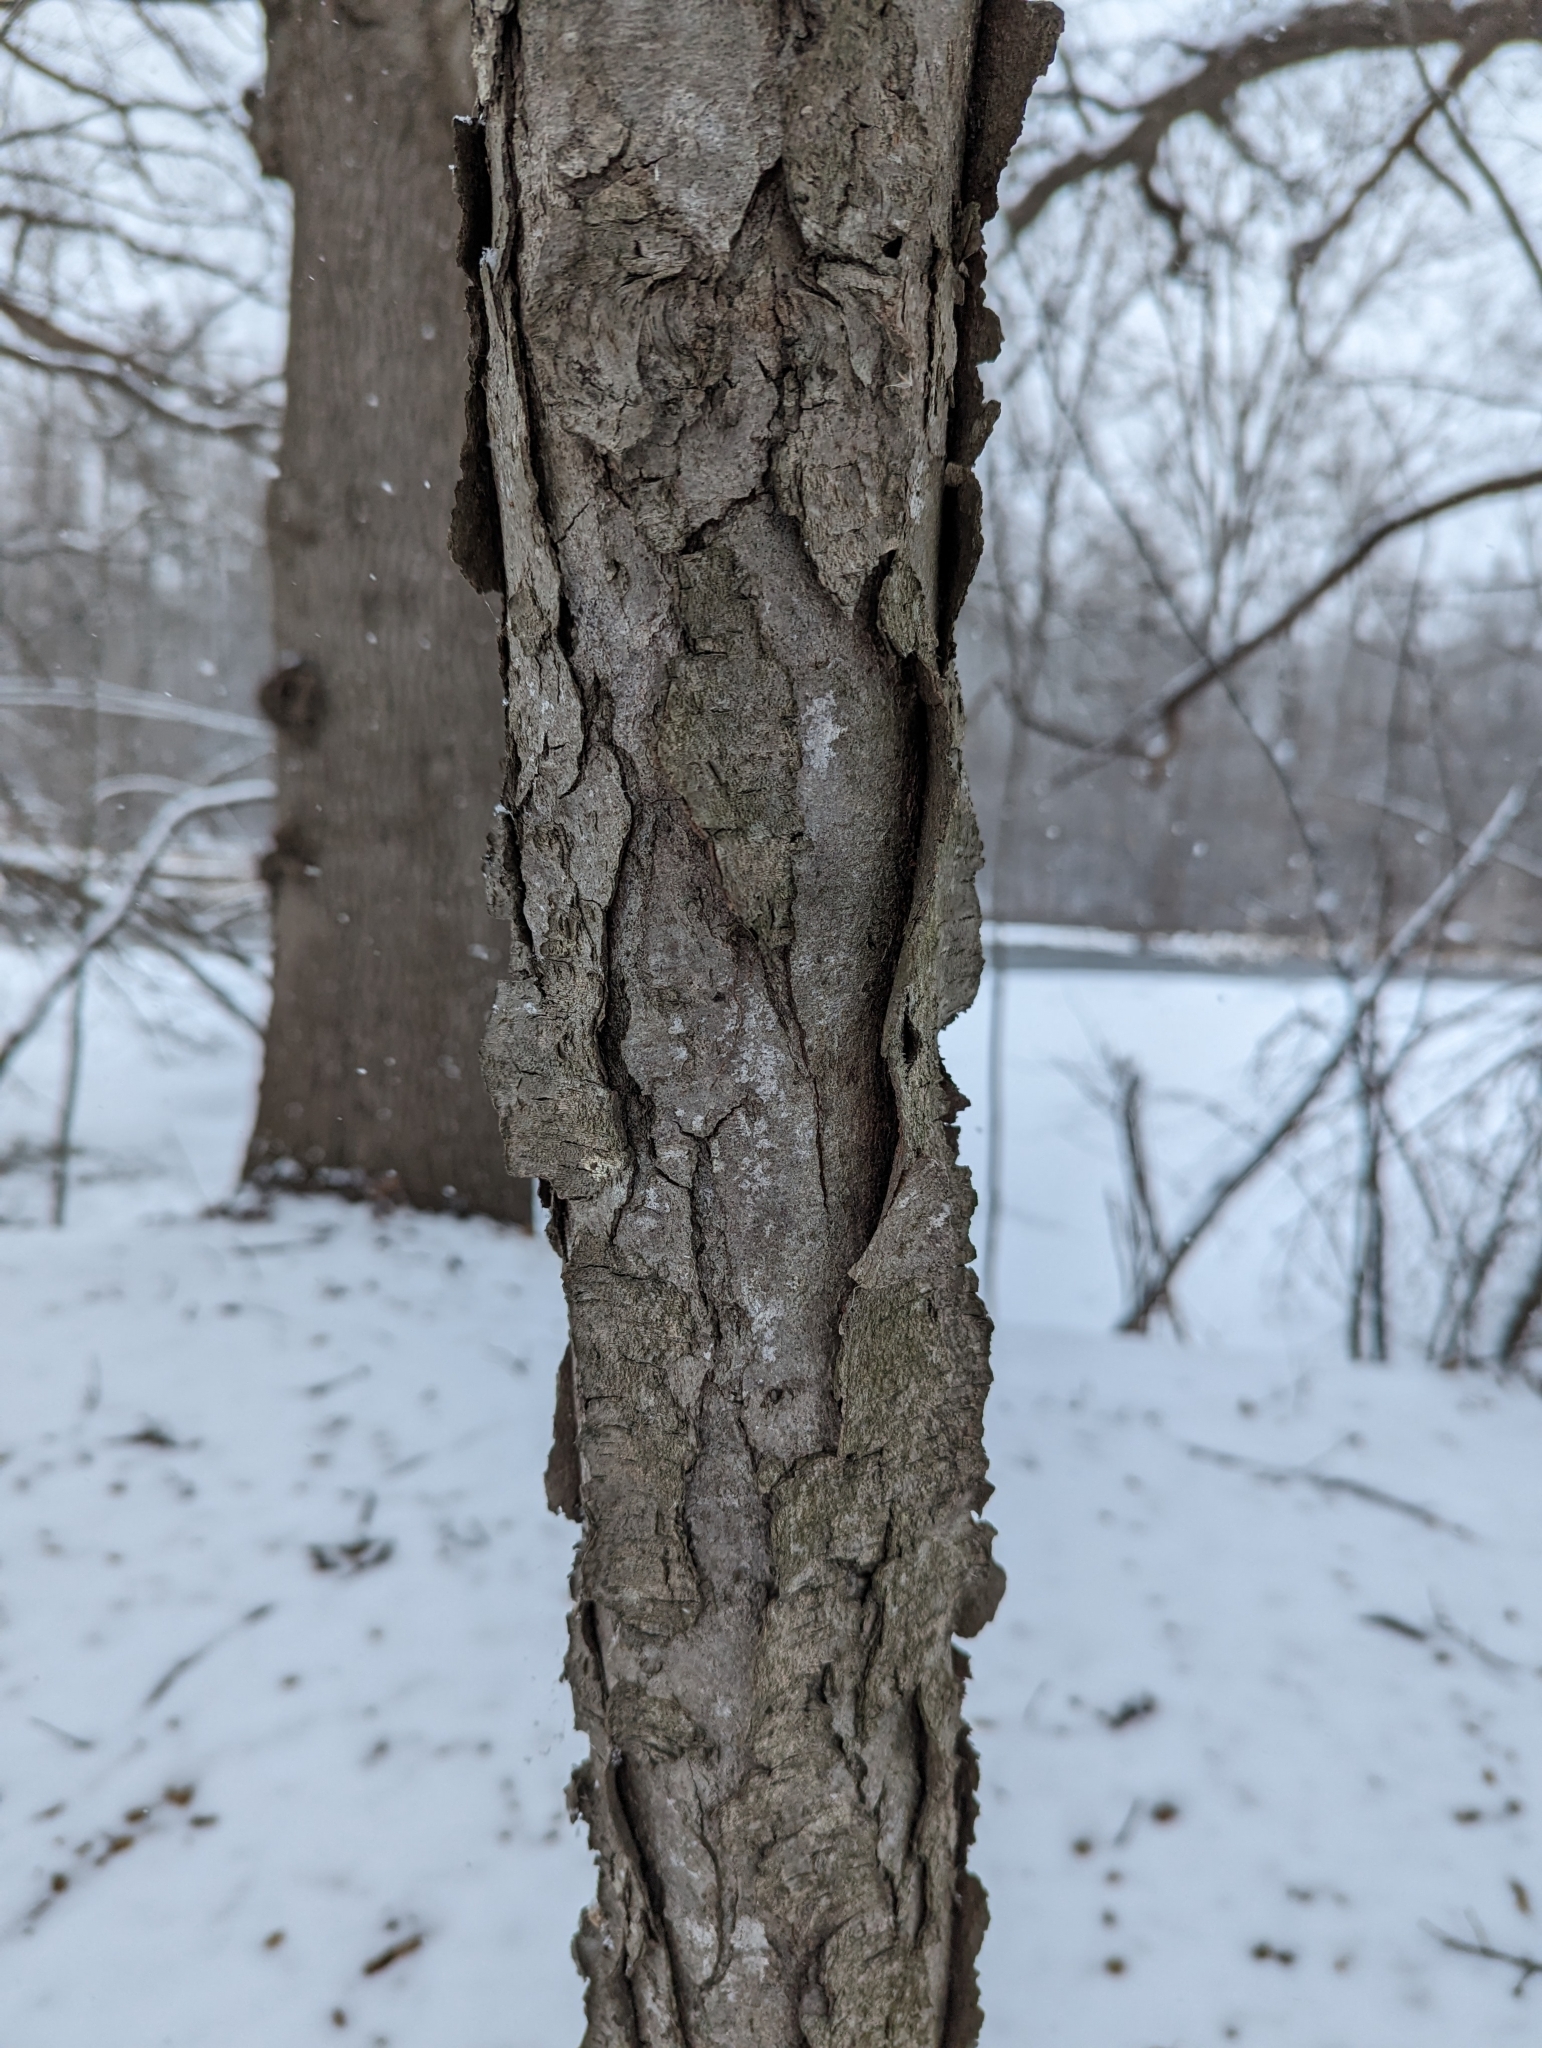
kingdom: Plantae
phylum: Tracheophyta
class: Magnoliopsida
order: Rosales
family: Rosaceae
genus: Prunus
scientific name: Prunus serotina
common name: Black cherry
